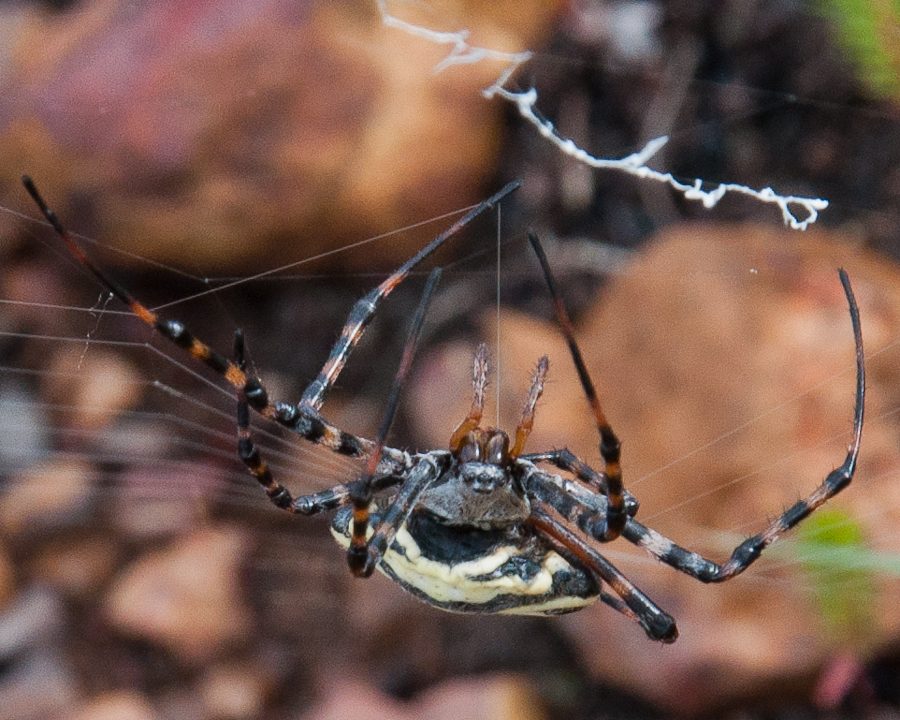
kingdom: Animalia
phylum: Arthropoda
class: Arachnida
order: Araneae
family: Araneidae
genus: Argiope
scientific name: Argiope australis
